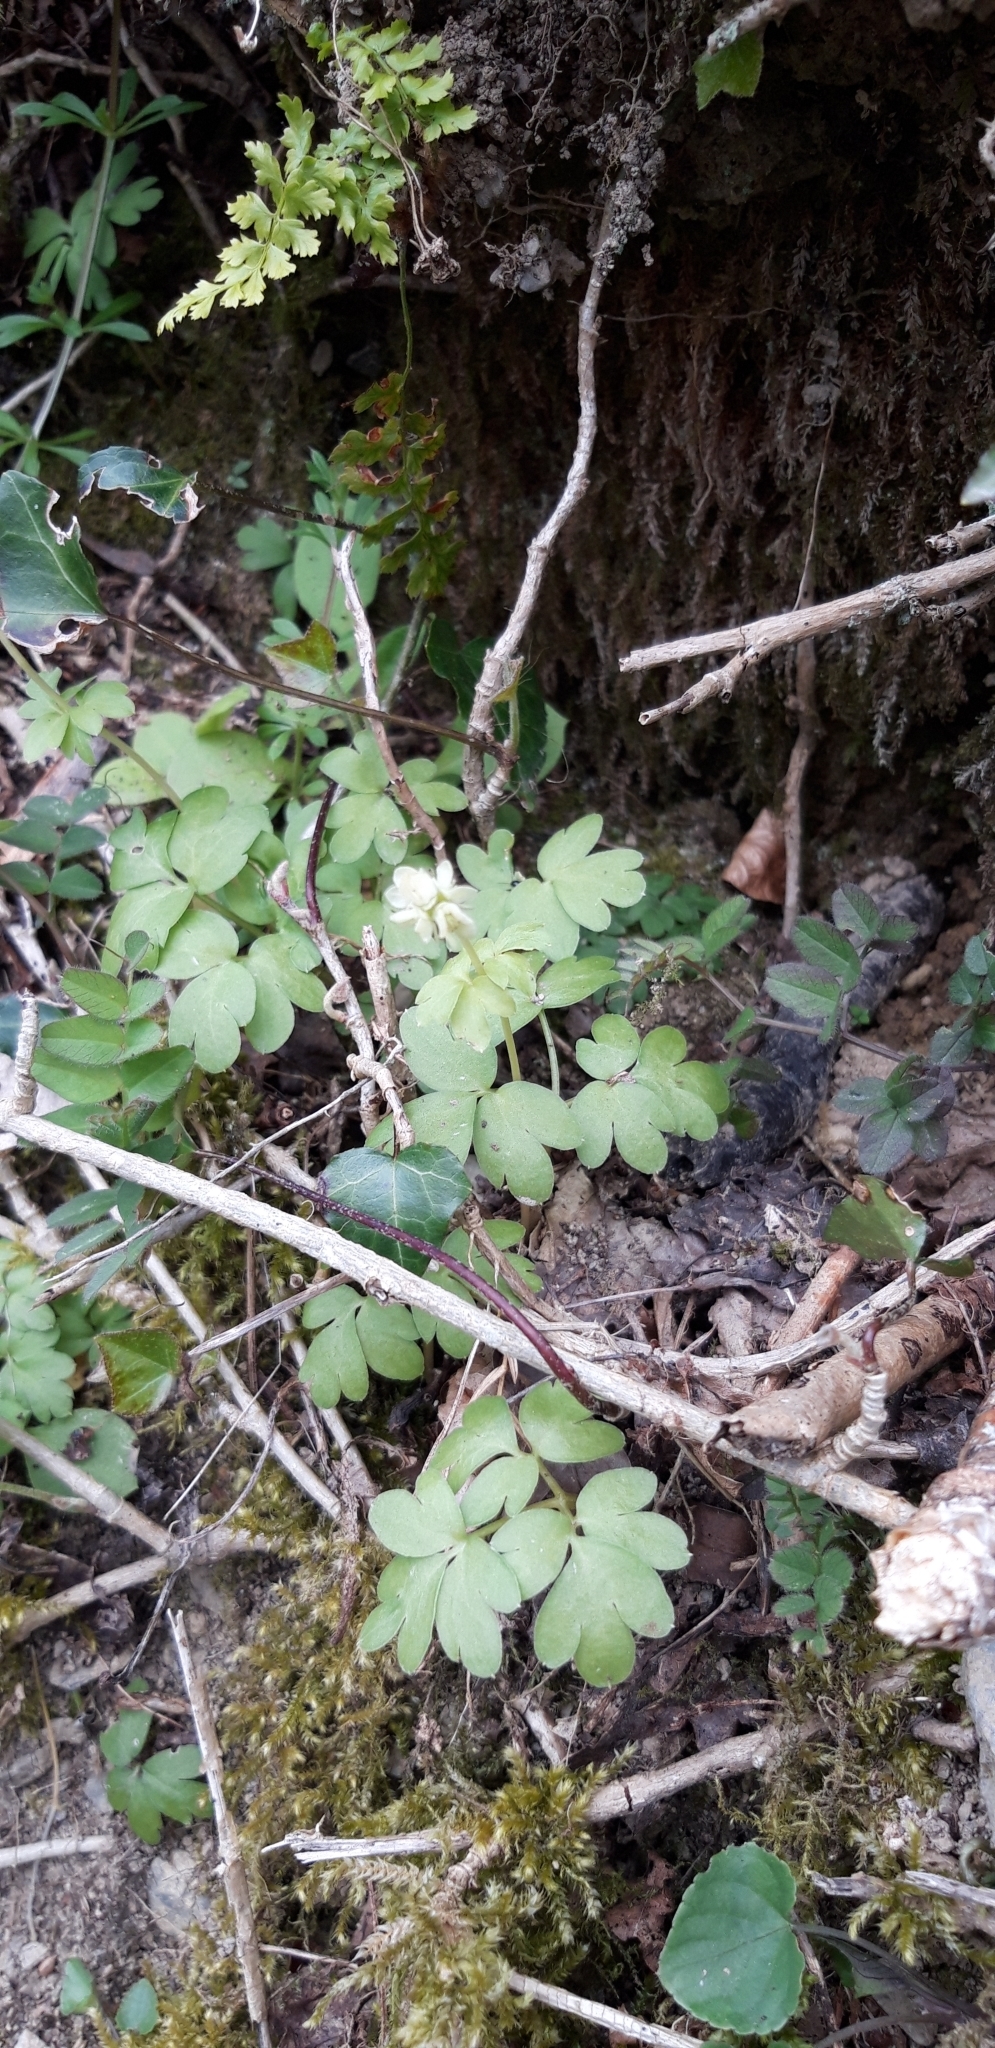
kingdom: Plantae
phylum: Tracheophyta
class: Magnoliopsida
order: Dipsacales
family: Viburnaceae
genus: Adoxa
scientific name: Adoxa moschatellina
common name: Moschatel
